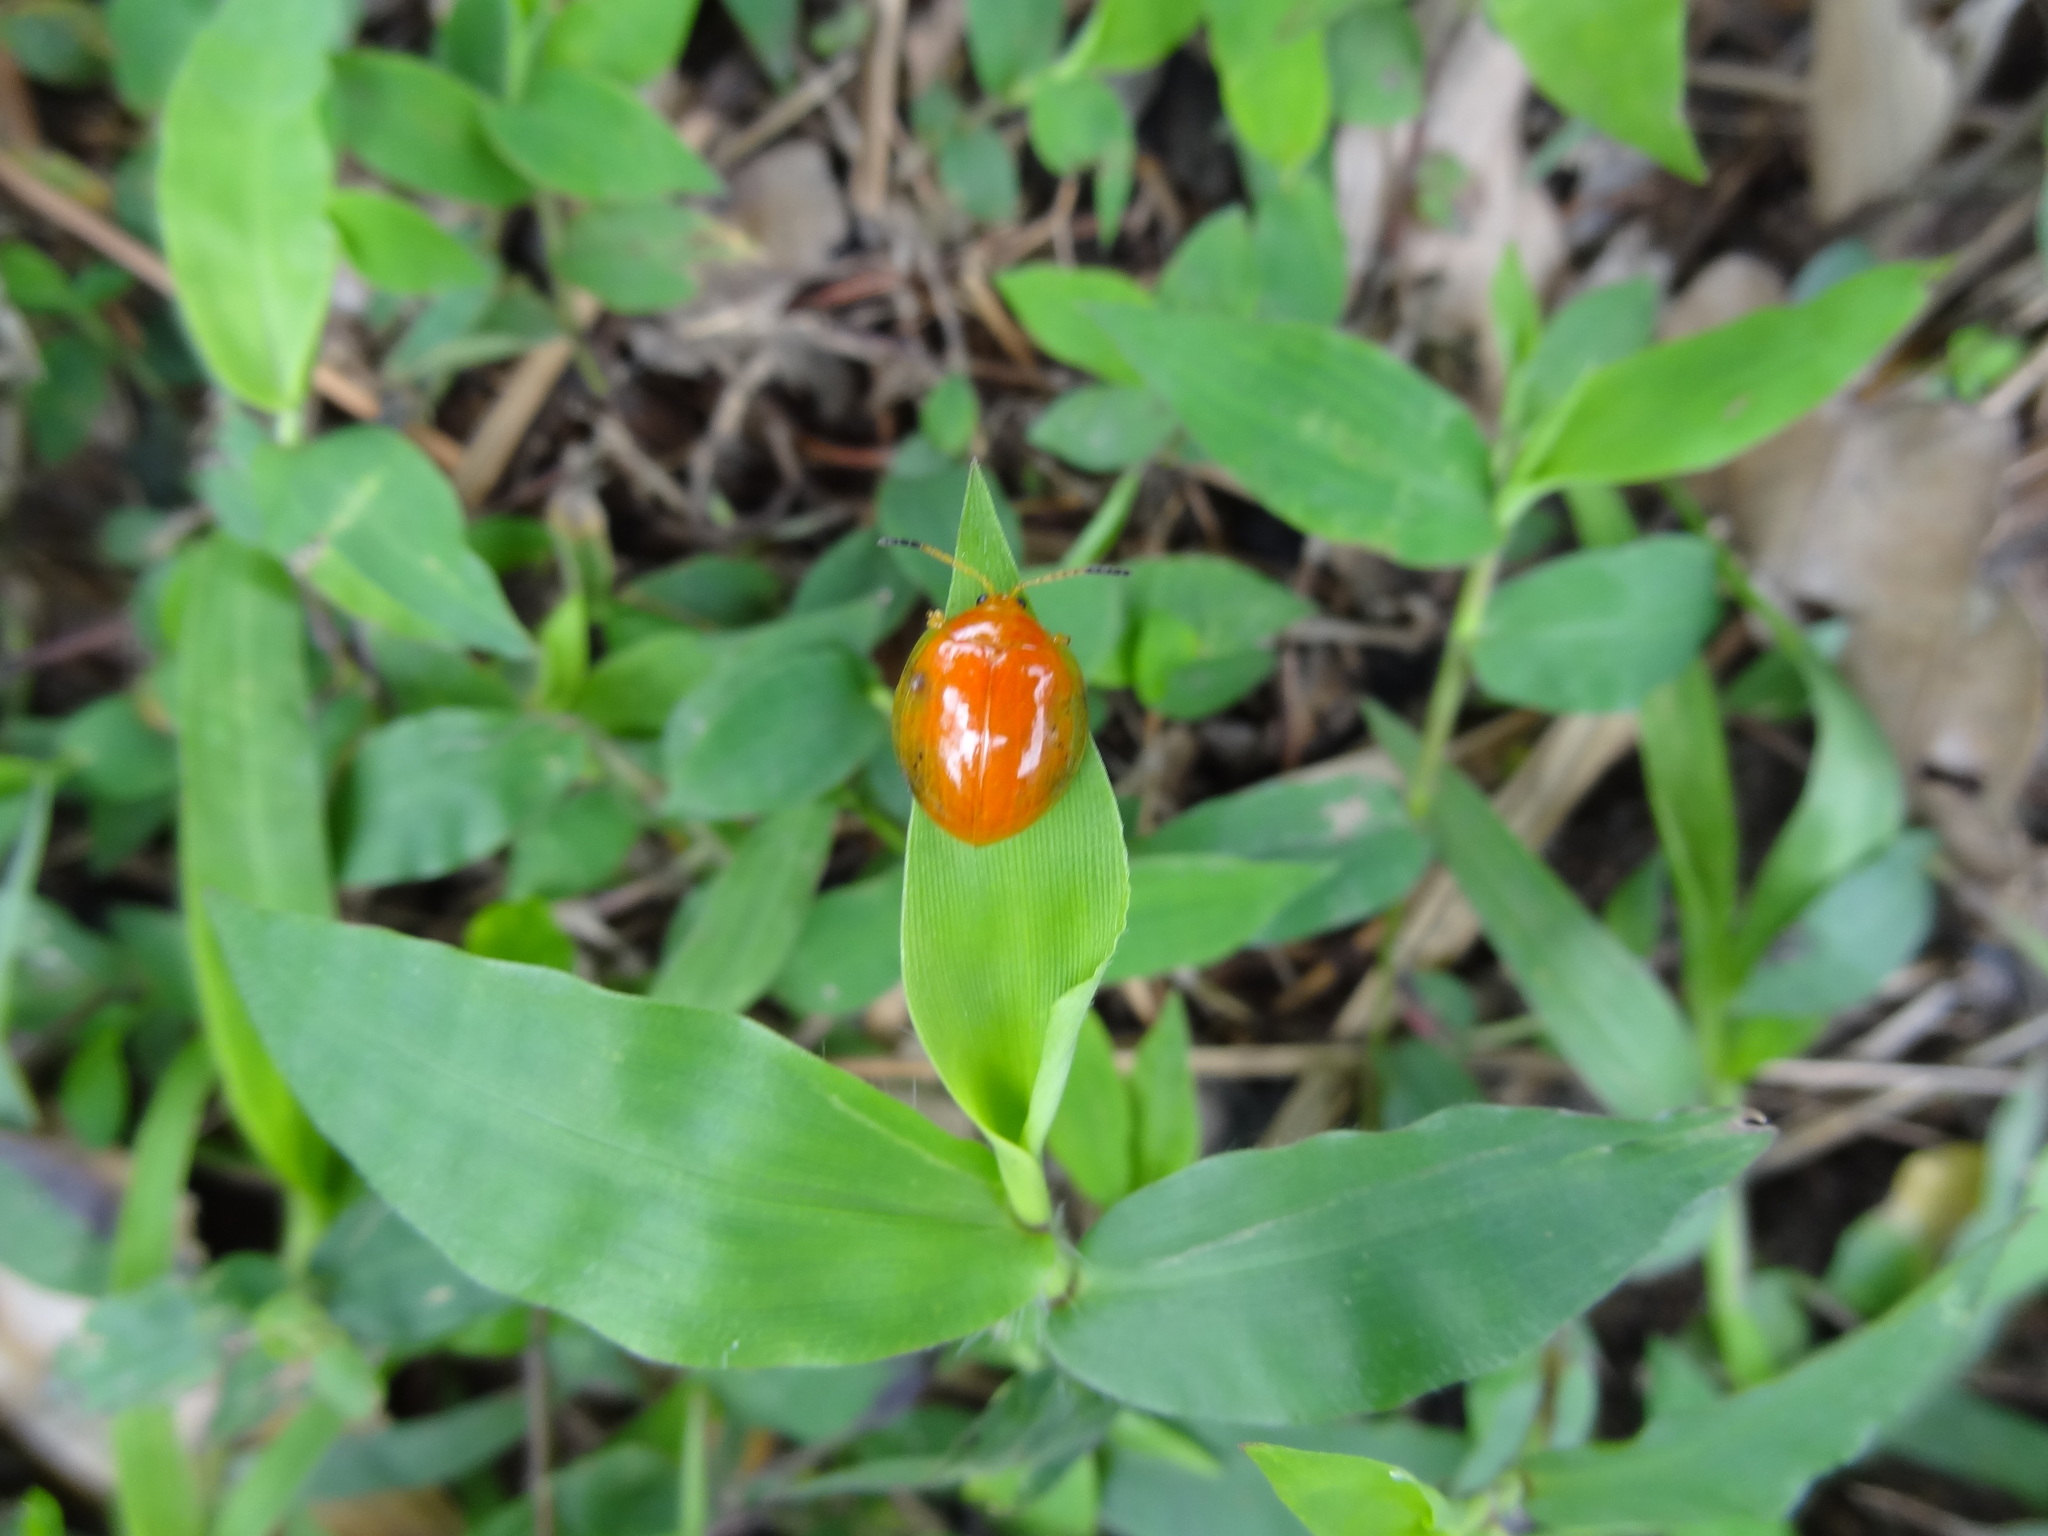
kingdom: Animalia
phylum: Arthropoda
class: Insecta
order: Coleoptera
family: Chrysomelidae
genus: Sceloenopla
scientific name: Sceloenopla maculata
